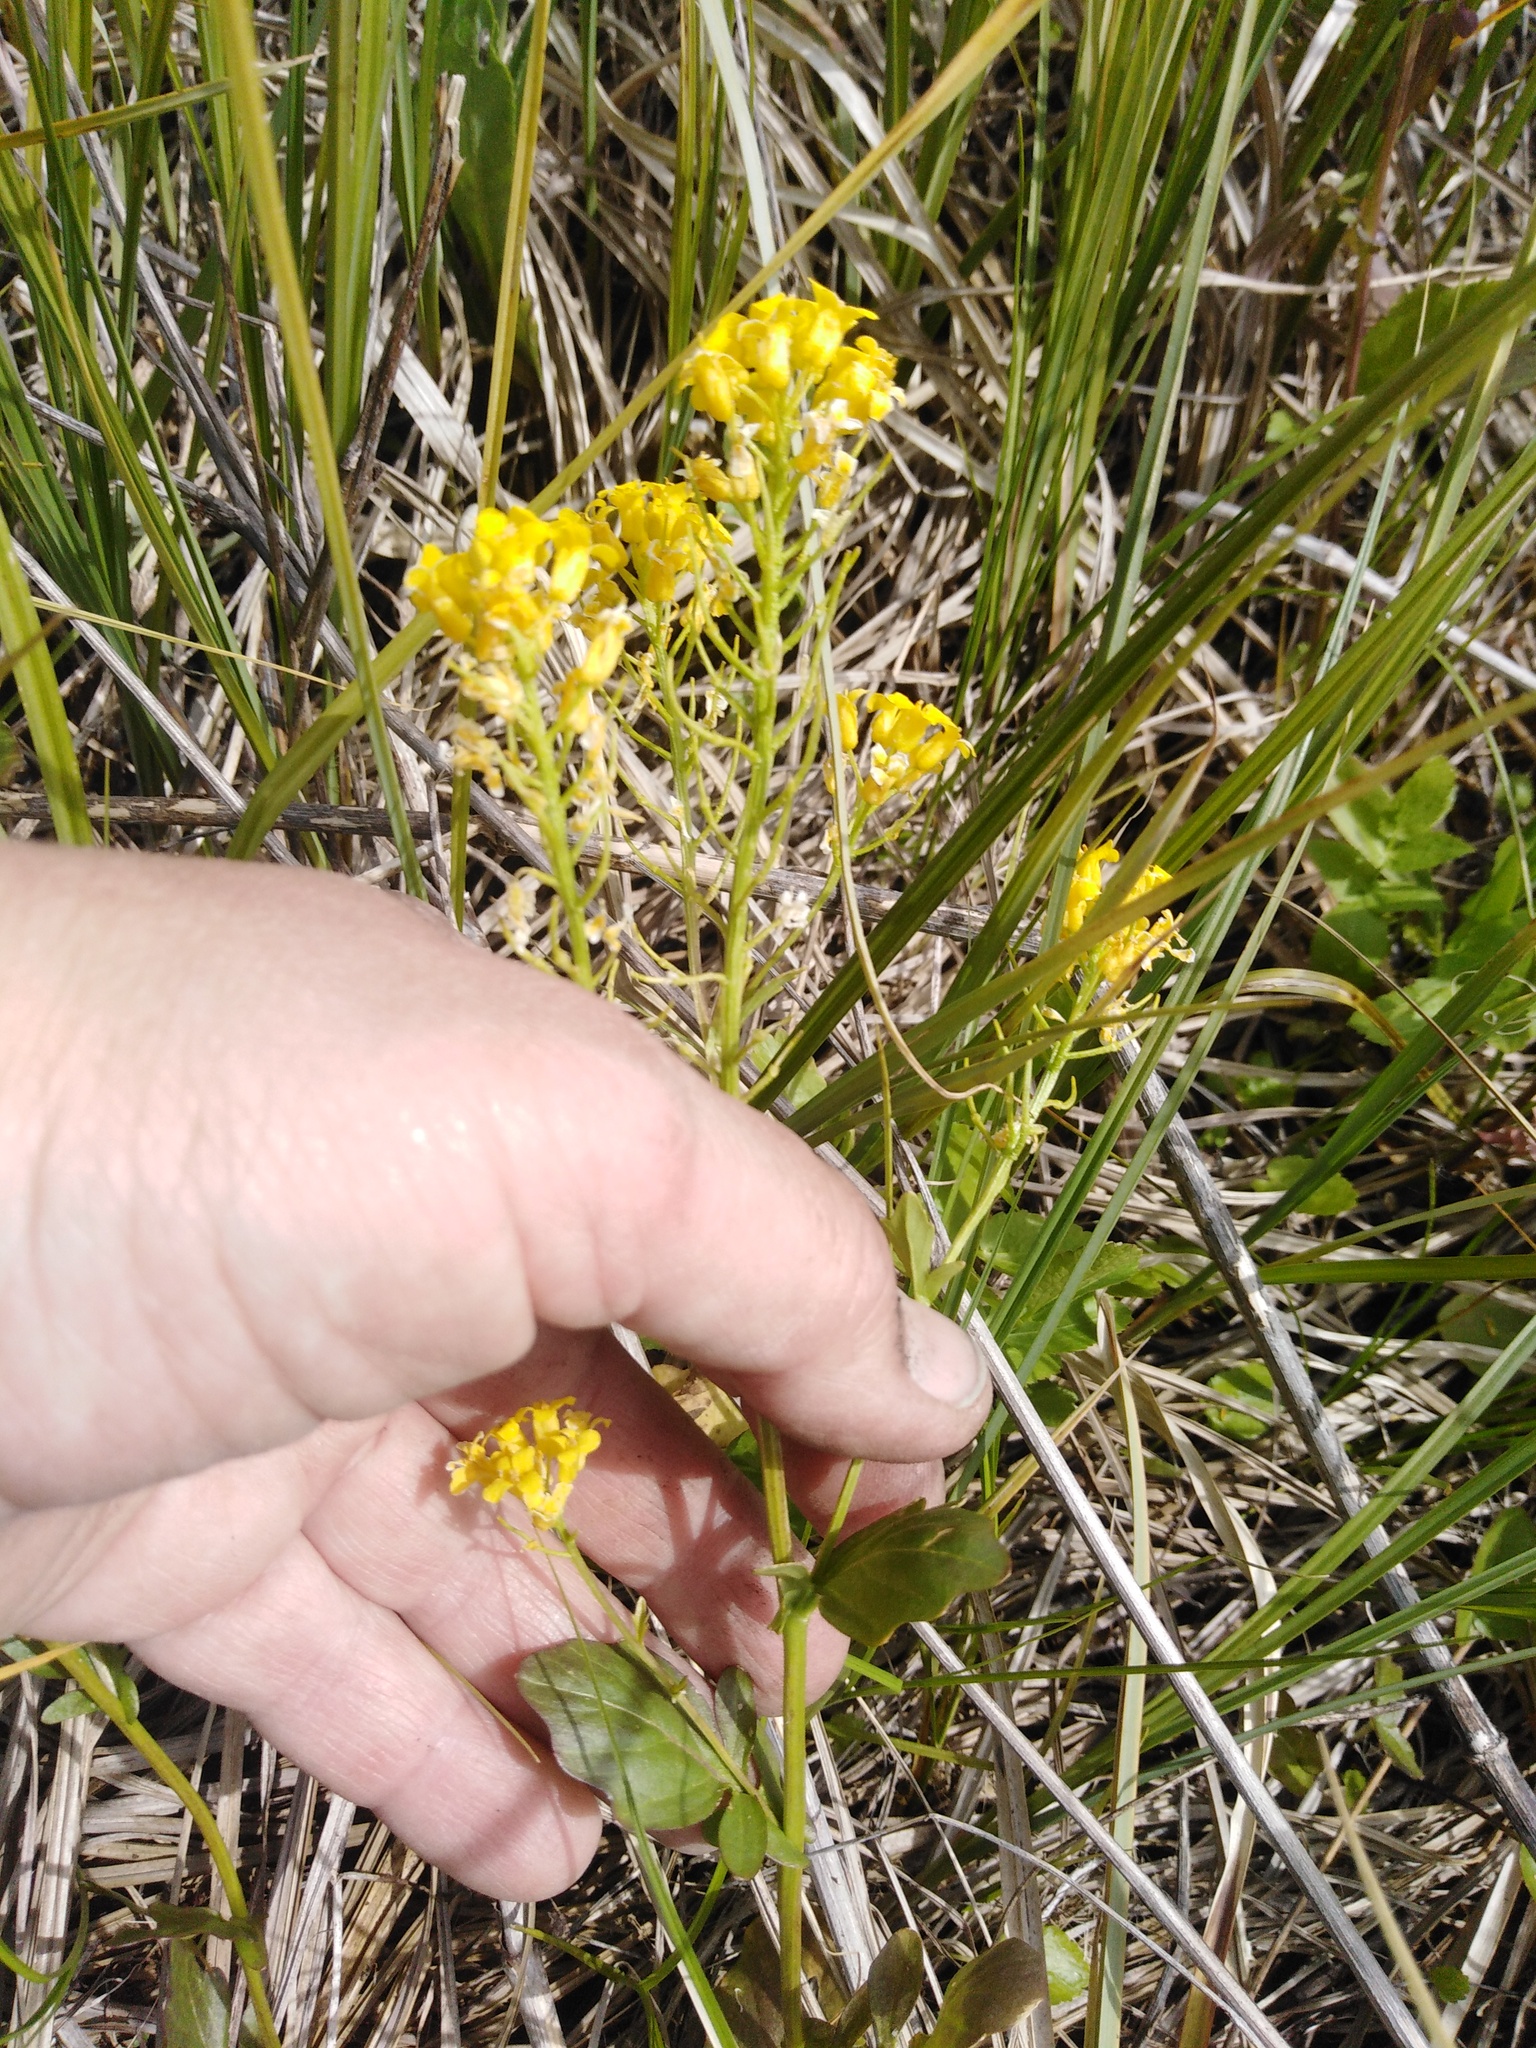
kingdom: Plantae
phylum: Tracheophyta
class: Magnoliopsida
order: Brassicales
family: Brassicaceae
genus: Barbarea
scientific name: Barbarea vulgaris
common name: Cressy-greens
